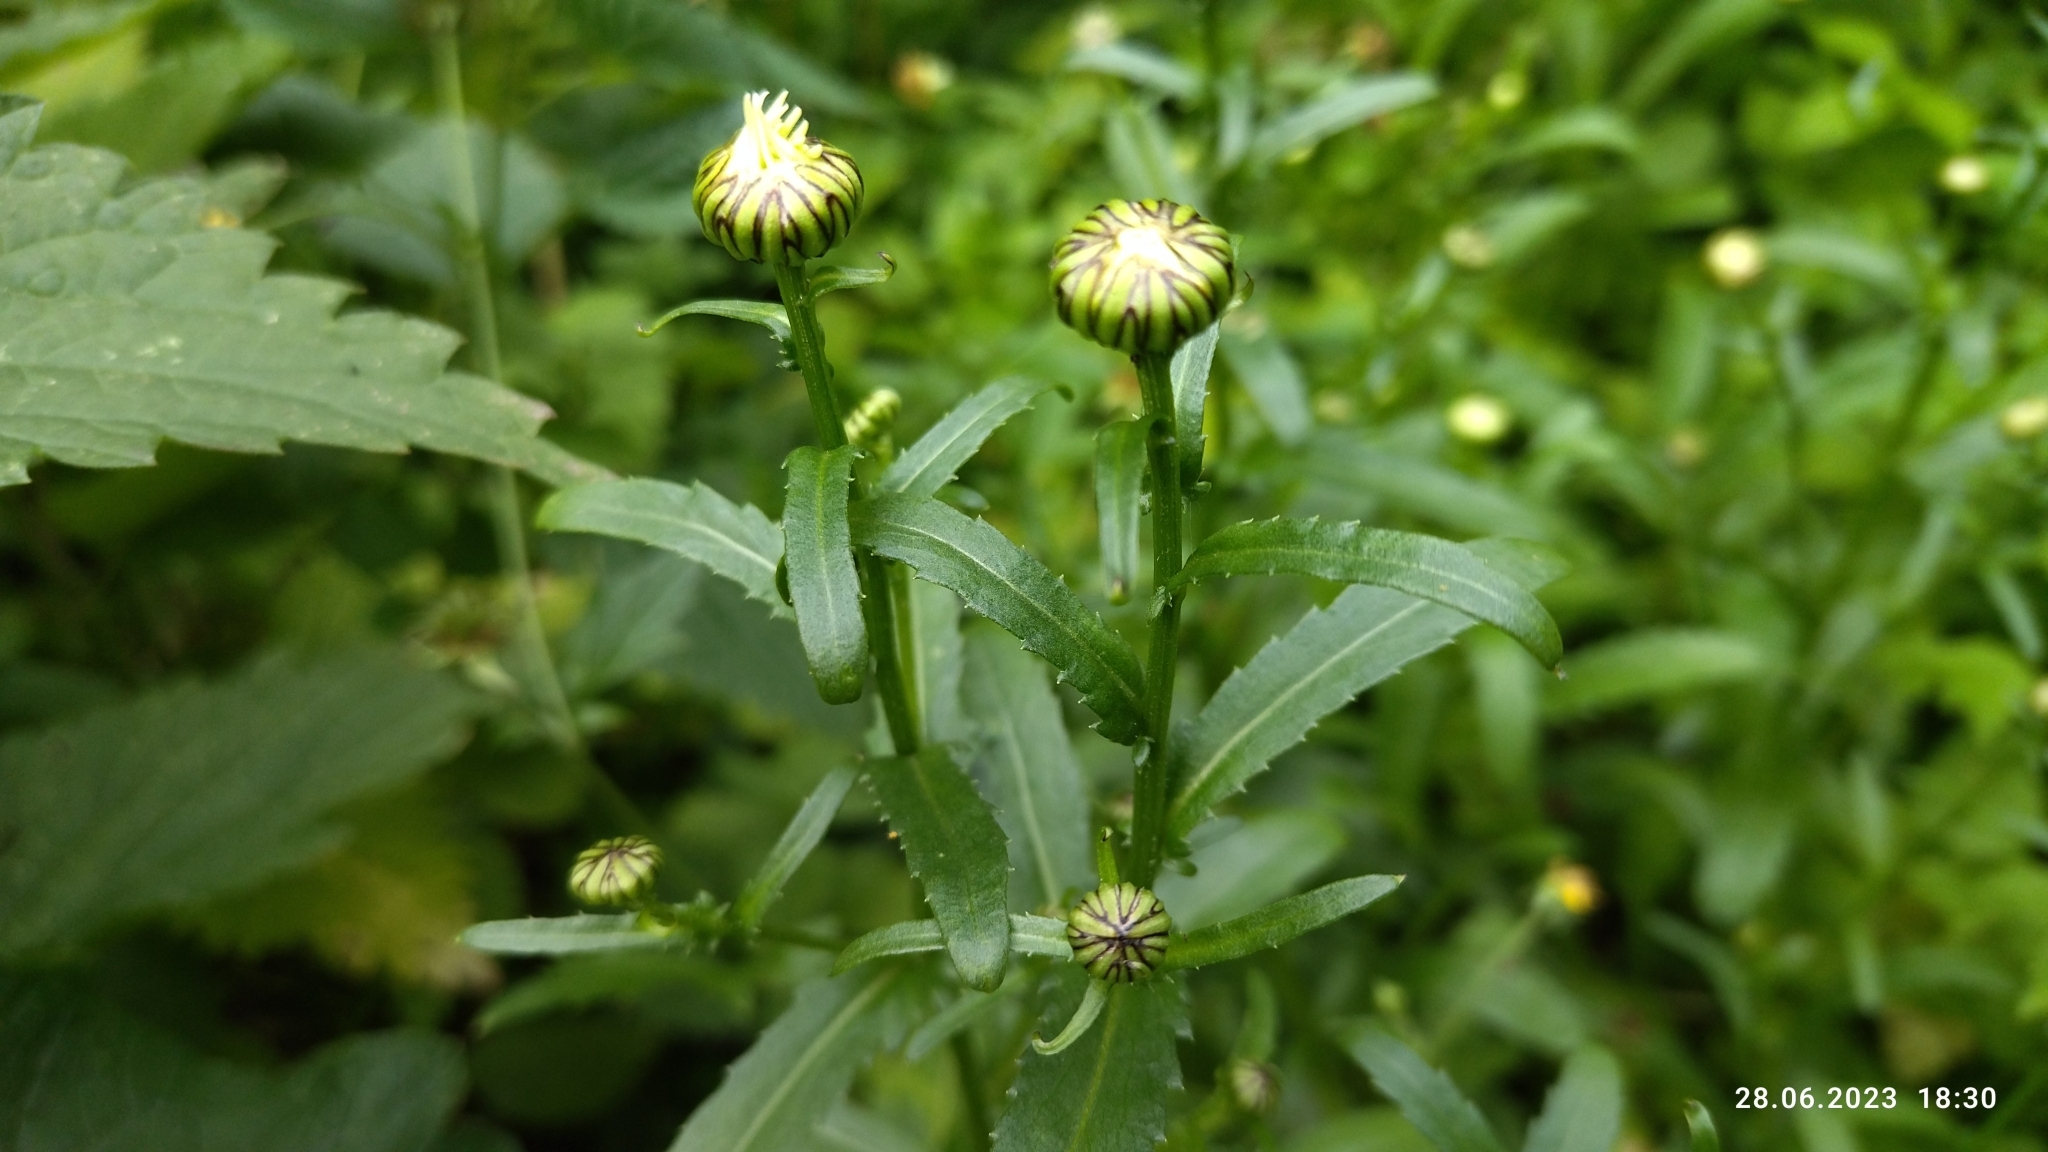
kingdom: Plantae
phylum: Tracheophyta
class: Magnoliopsida
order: Asterales
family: Asteraceae
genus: Leucanthemum
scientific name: Leucanthemum vulgare
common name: Oxeye daisy
